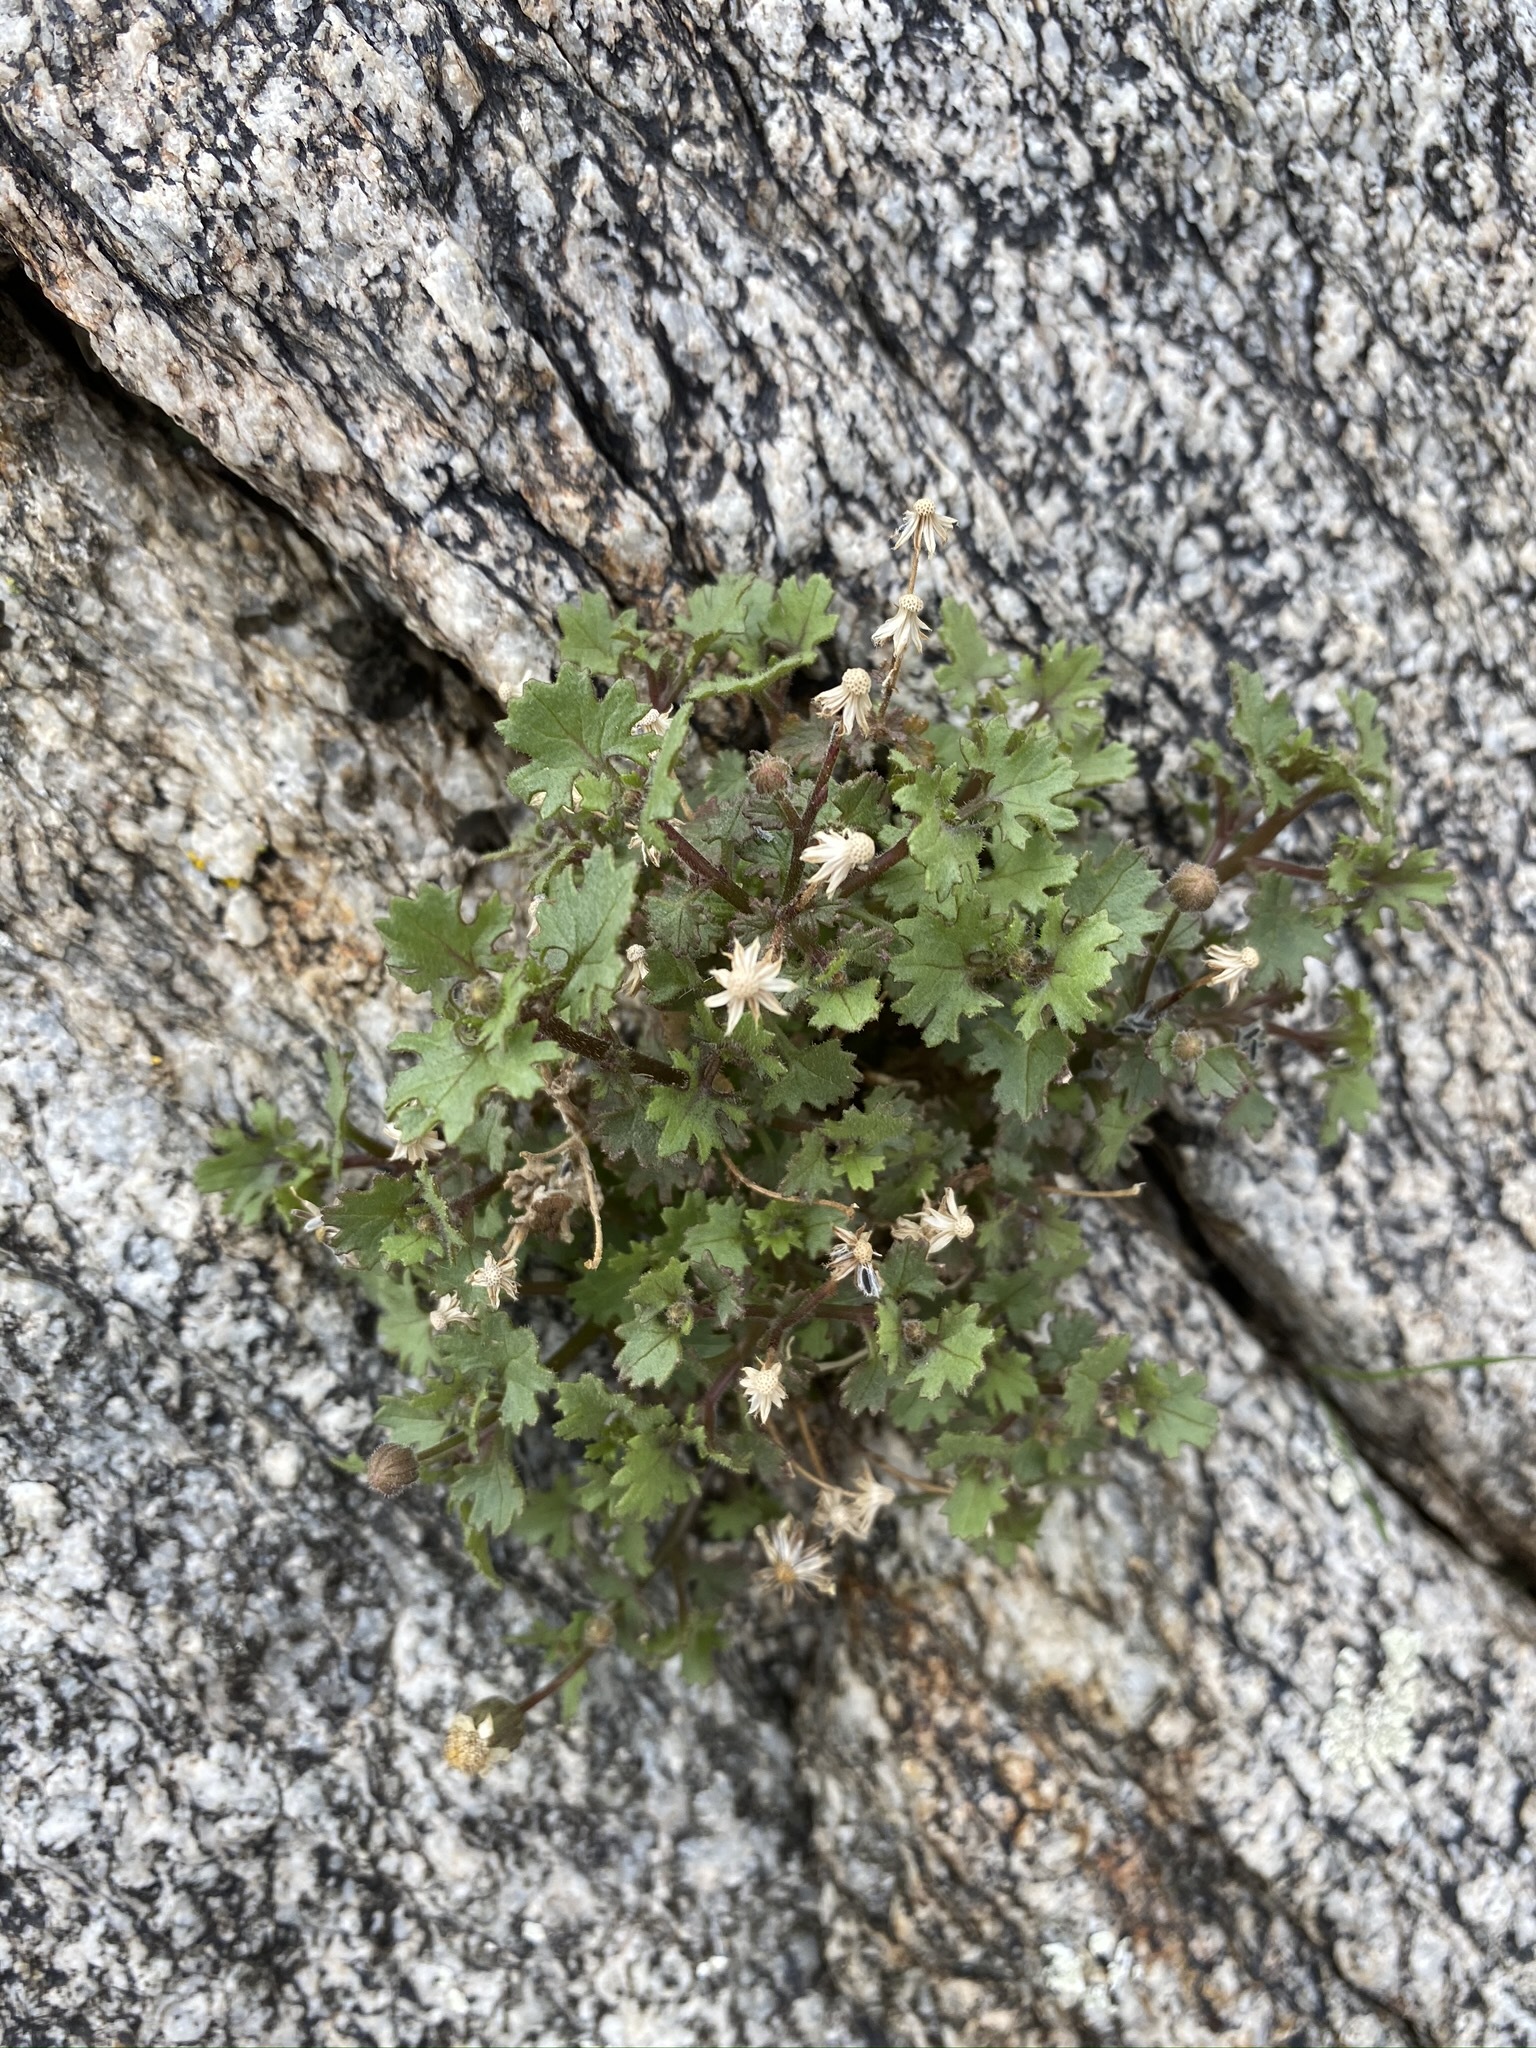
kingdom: Plantae
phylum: Tracheophyta
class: Magnoliopsida
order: Asterales
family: Asteraceae
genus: Laphamia
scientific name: Laphamia emoryi
